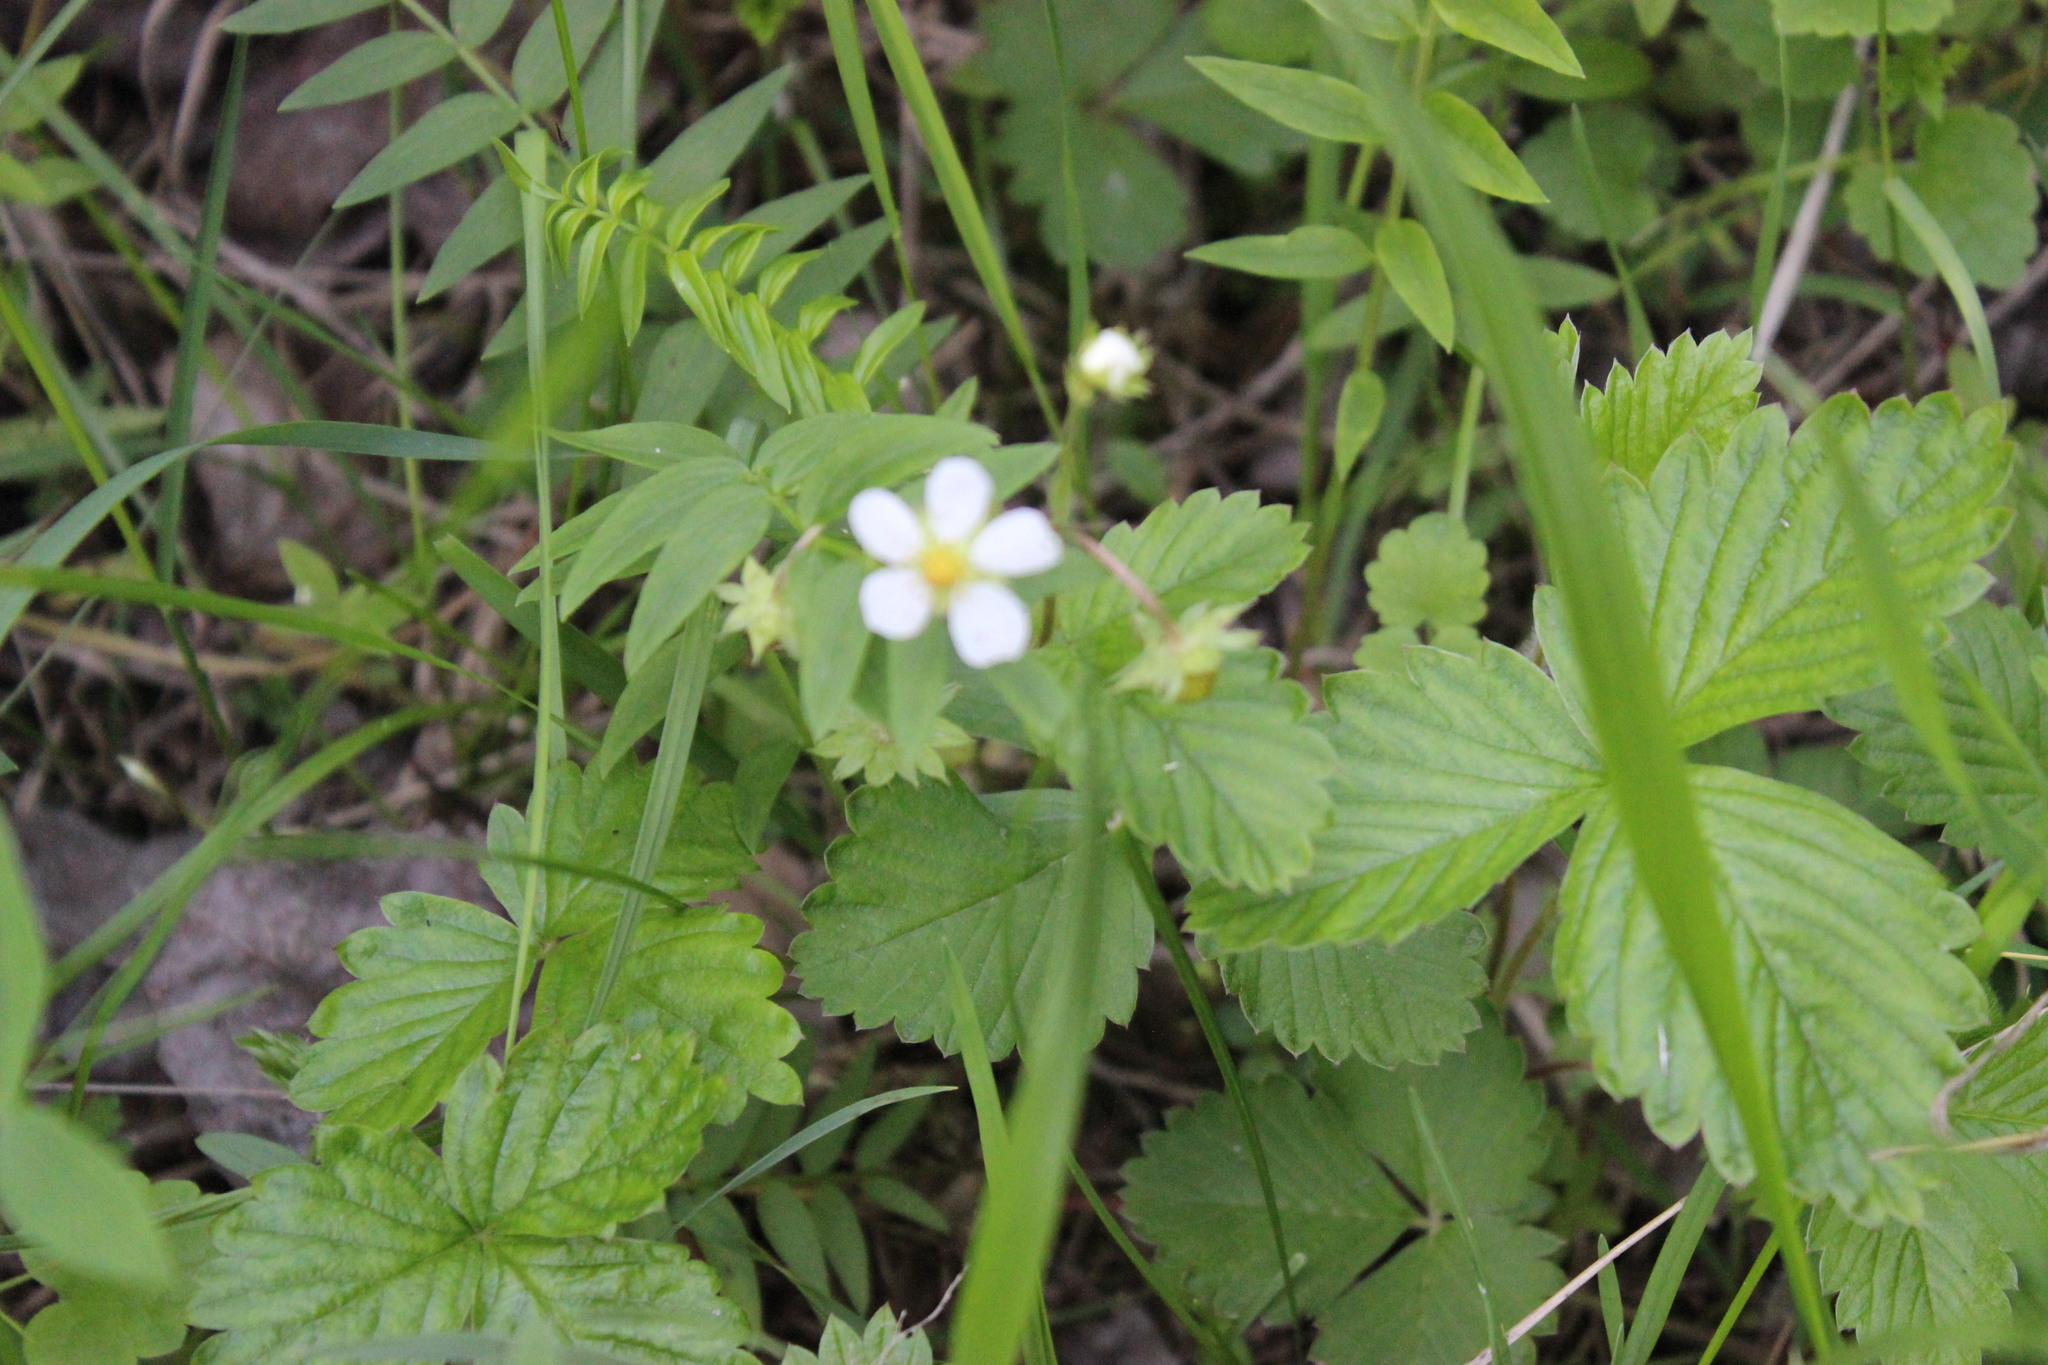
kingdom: Plantae
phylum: Tracheophyta
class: Magnoliopsida
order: Rosales
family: Rosaceae
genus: Fragaria
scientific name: Fragaria vesca
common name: Wild strawberry
